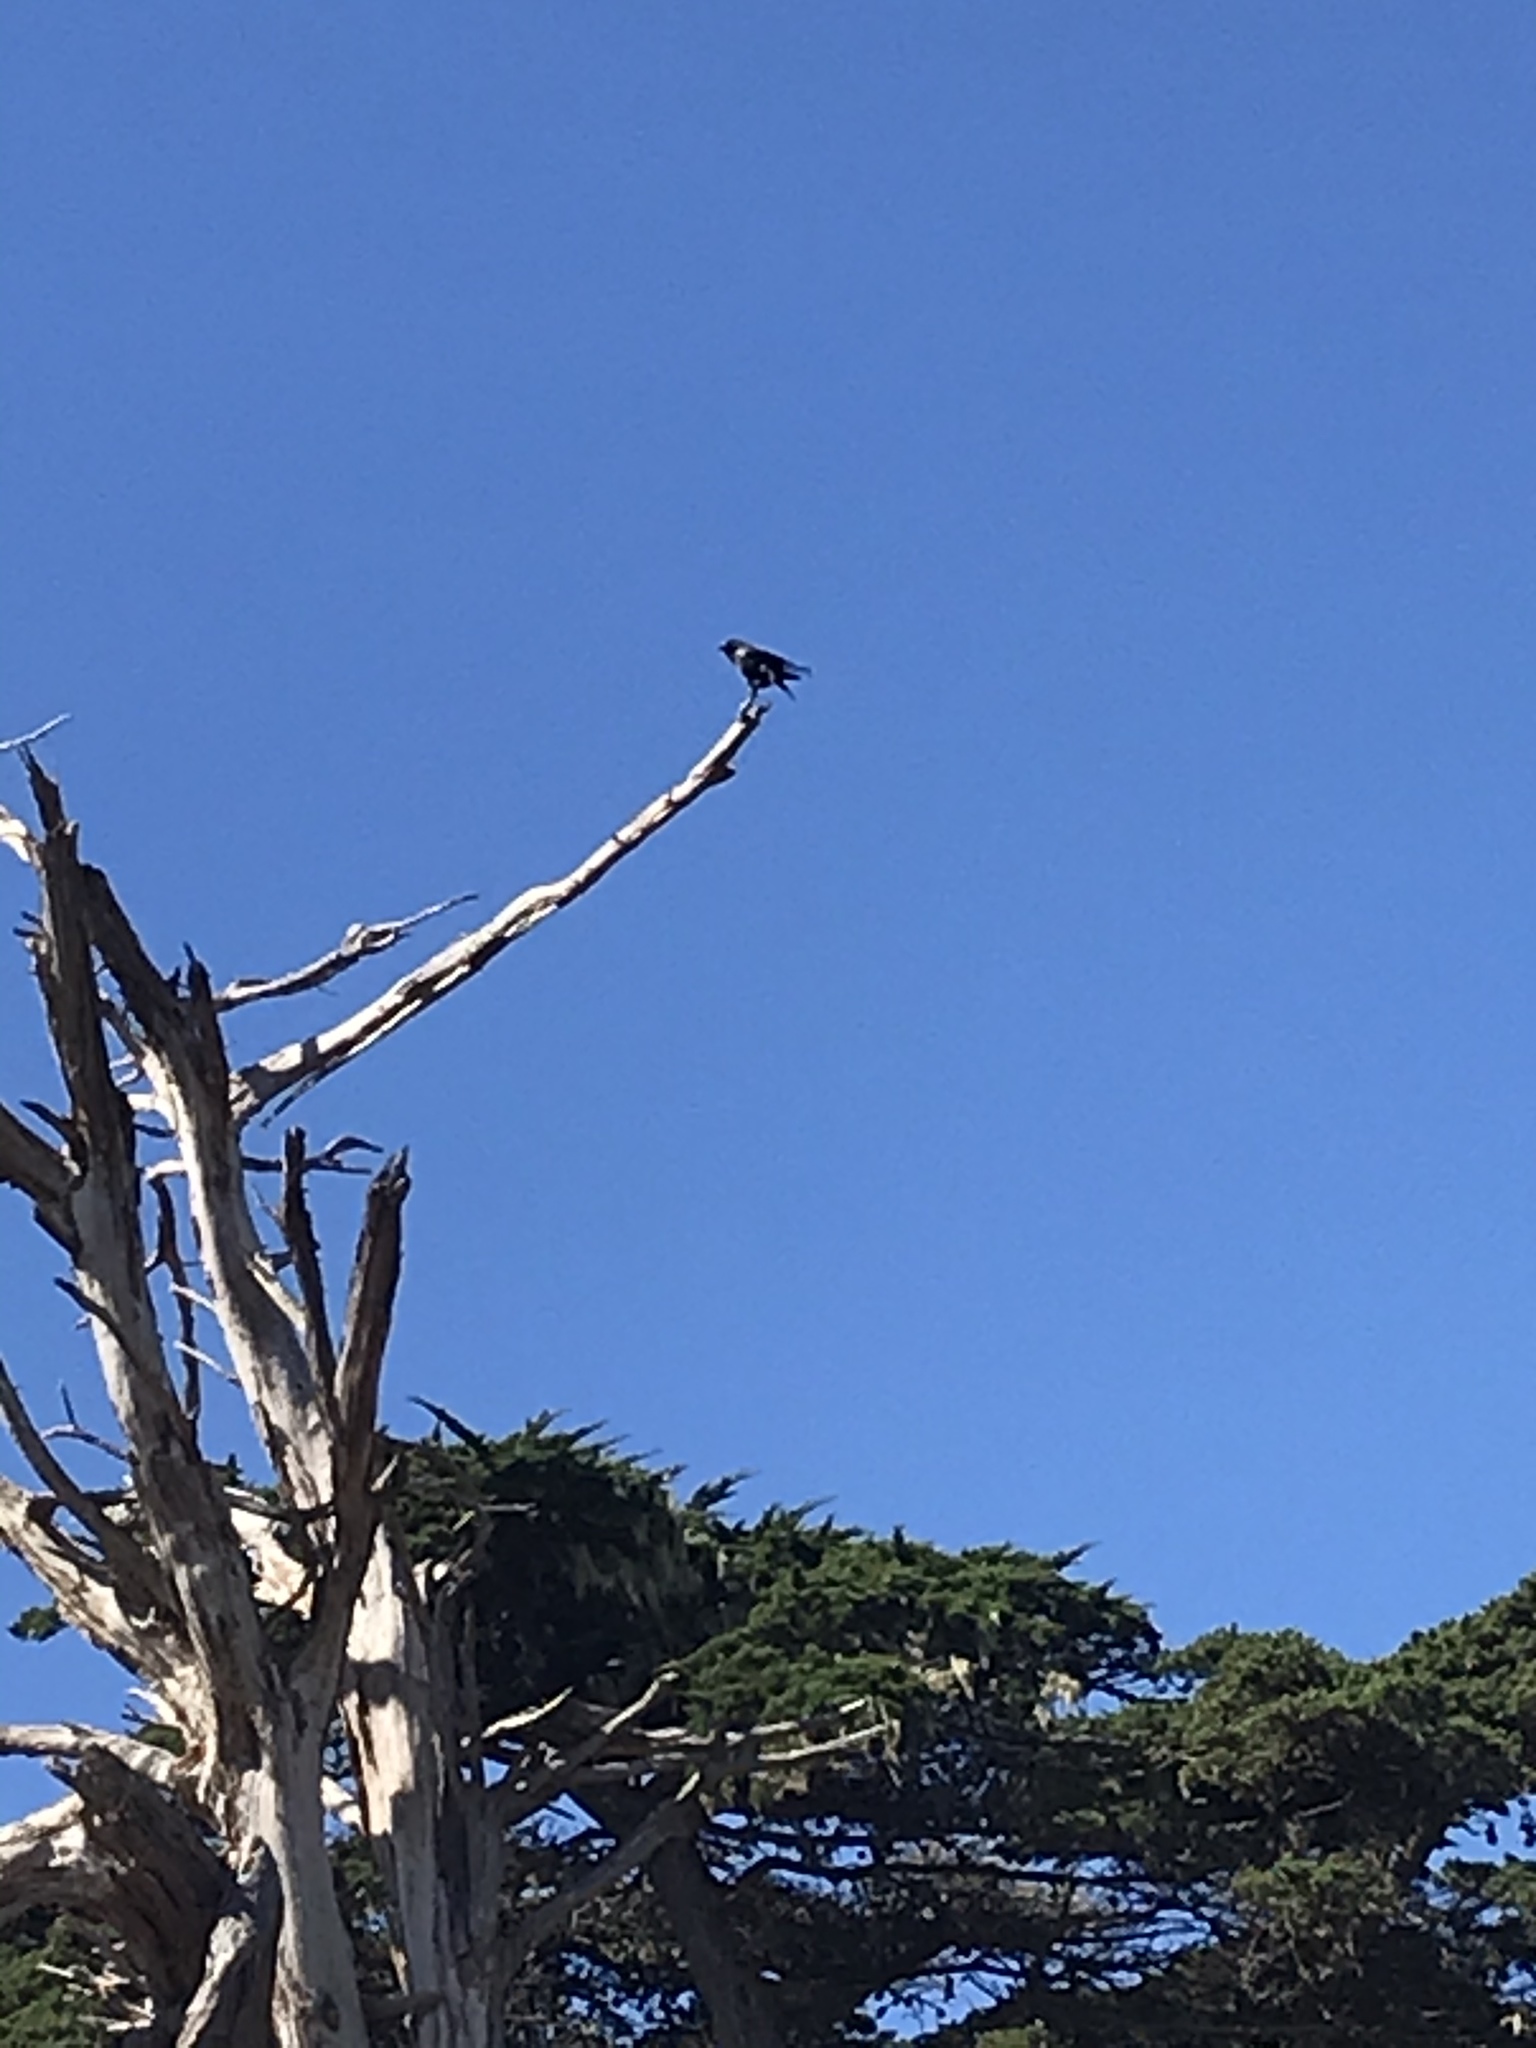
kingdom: Animalia
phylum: Chordata
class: Aves
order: Passeriformes
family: Corvidae
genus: Corvus
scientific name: Corvus corax
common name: Common raven
